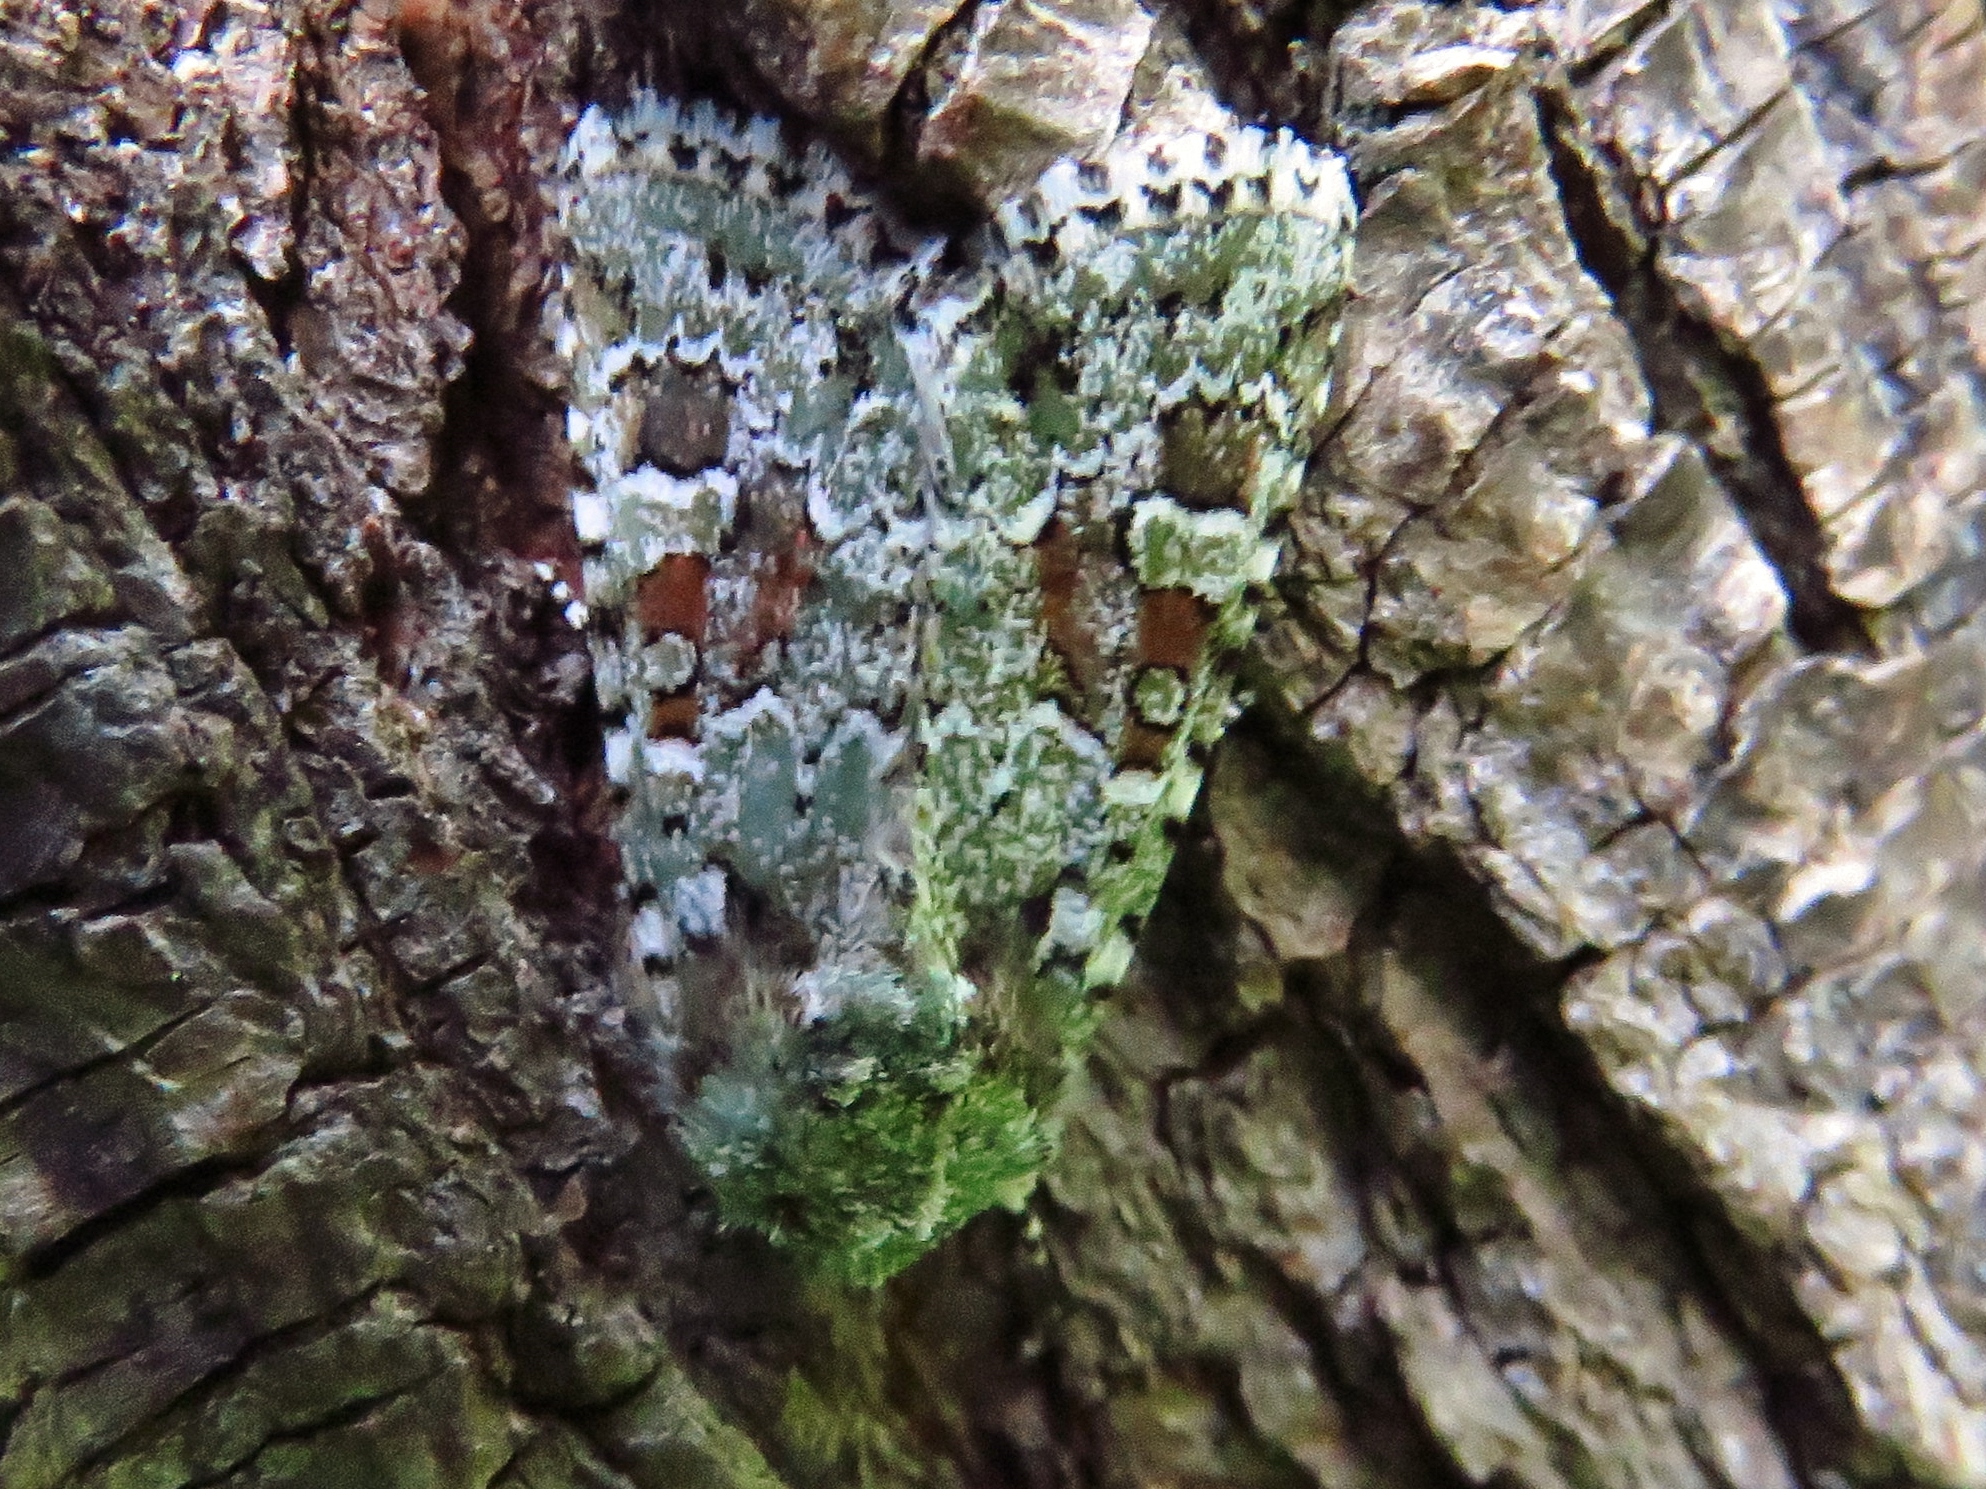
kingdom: Animalia
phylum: Arthropoda
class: Insecta
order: Lepidoptera
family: Noctuidae
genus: Lacinipolia
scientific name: Lacinipolia laudabilis
